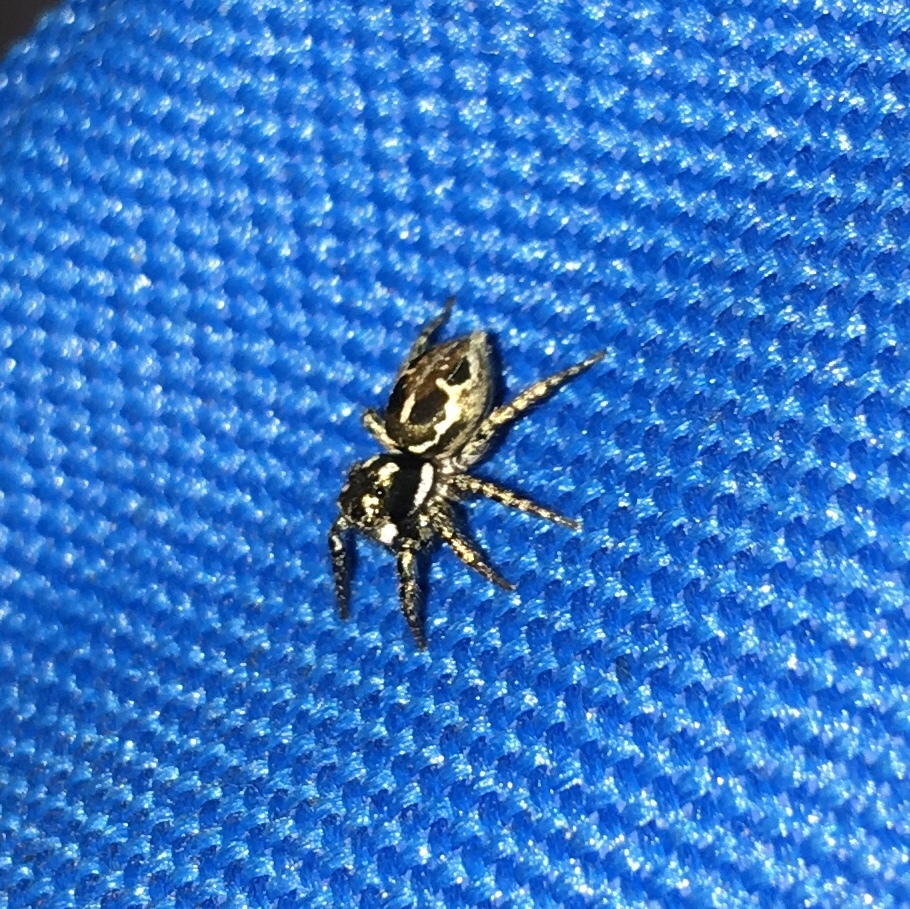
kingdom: Animalia
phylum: Arthropoda
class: Arachnida
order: Araneae
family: Salticidae
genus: Anasaitis
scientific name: Anasaitis canosa
